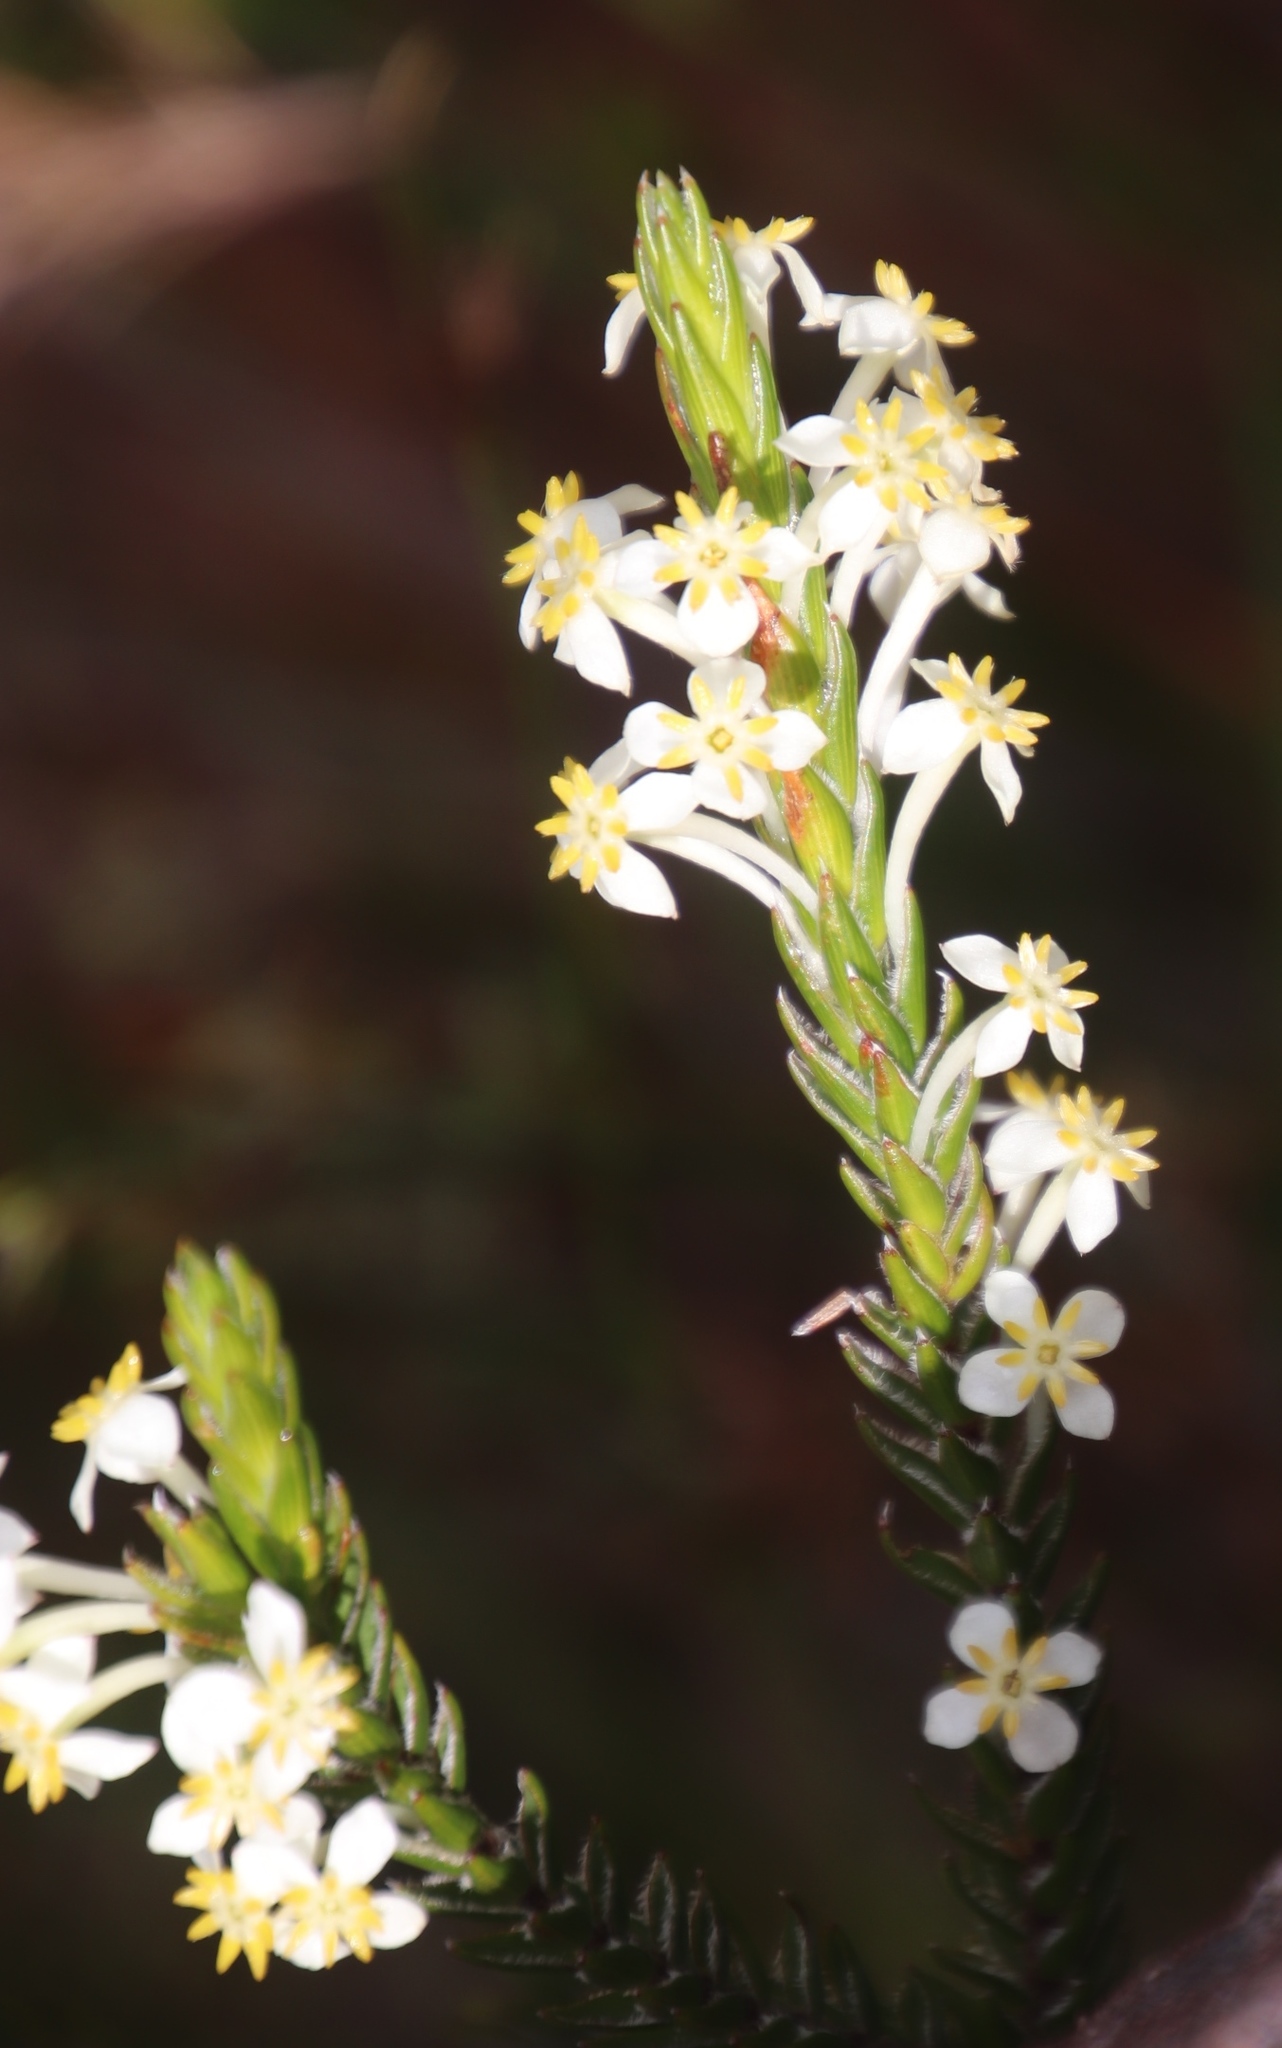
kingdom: Plantae
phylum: Tracheophyta
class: Magnoliopsida
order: Malvales
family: Thymelaeaceae
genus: Struthiola
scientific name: Struthiola ciliata
